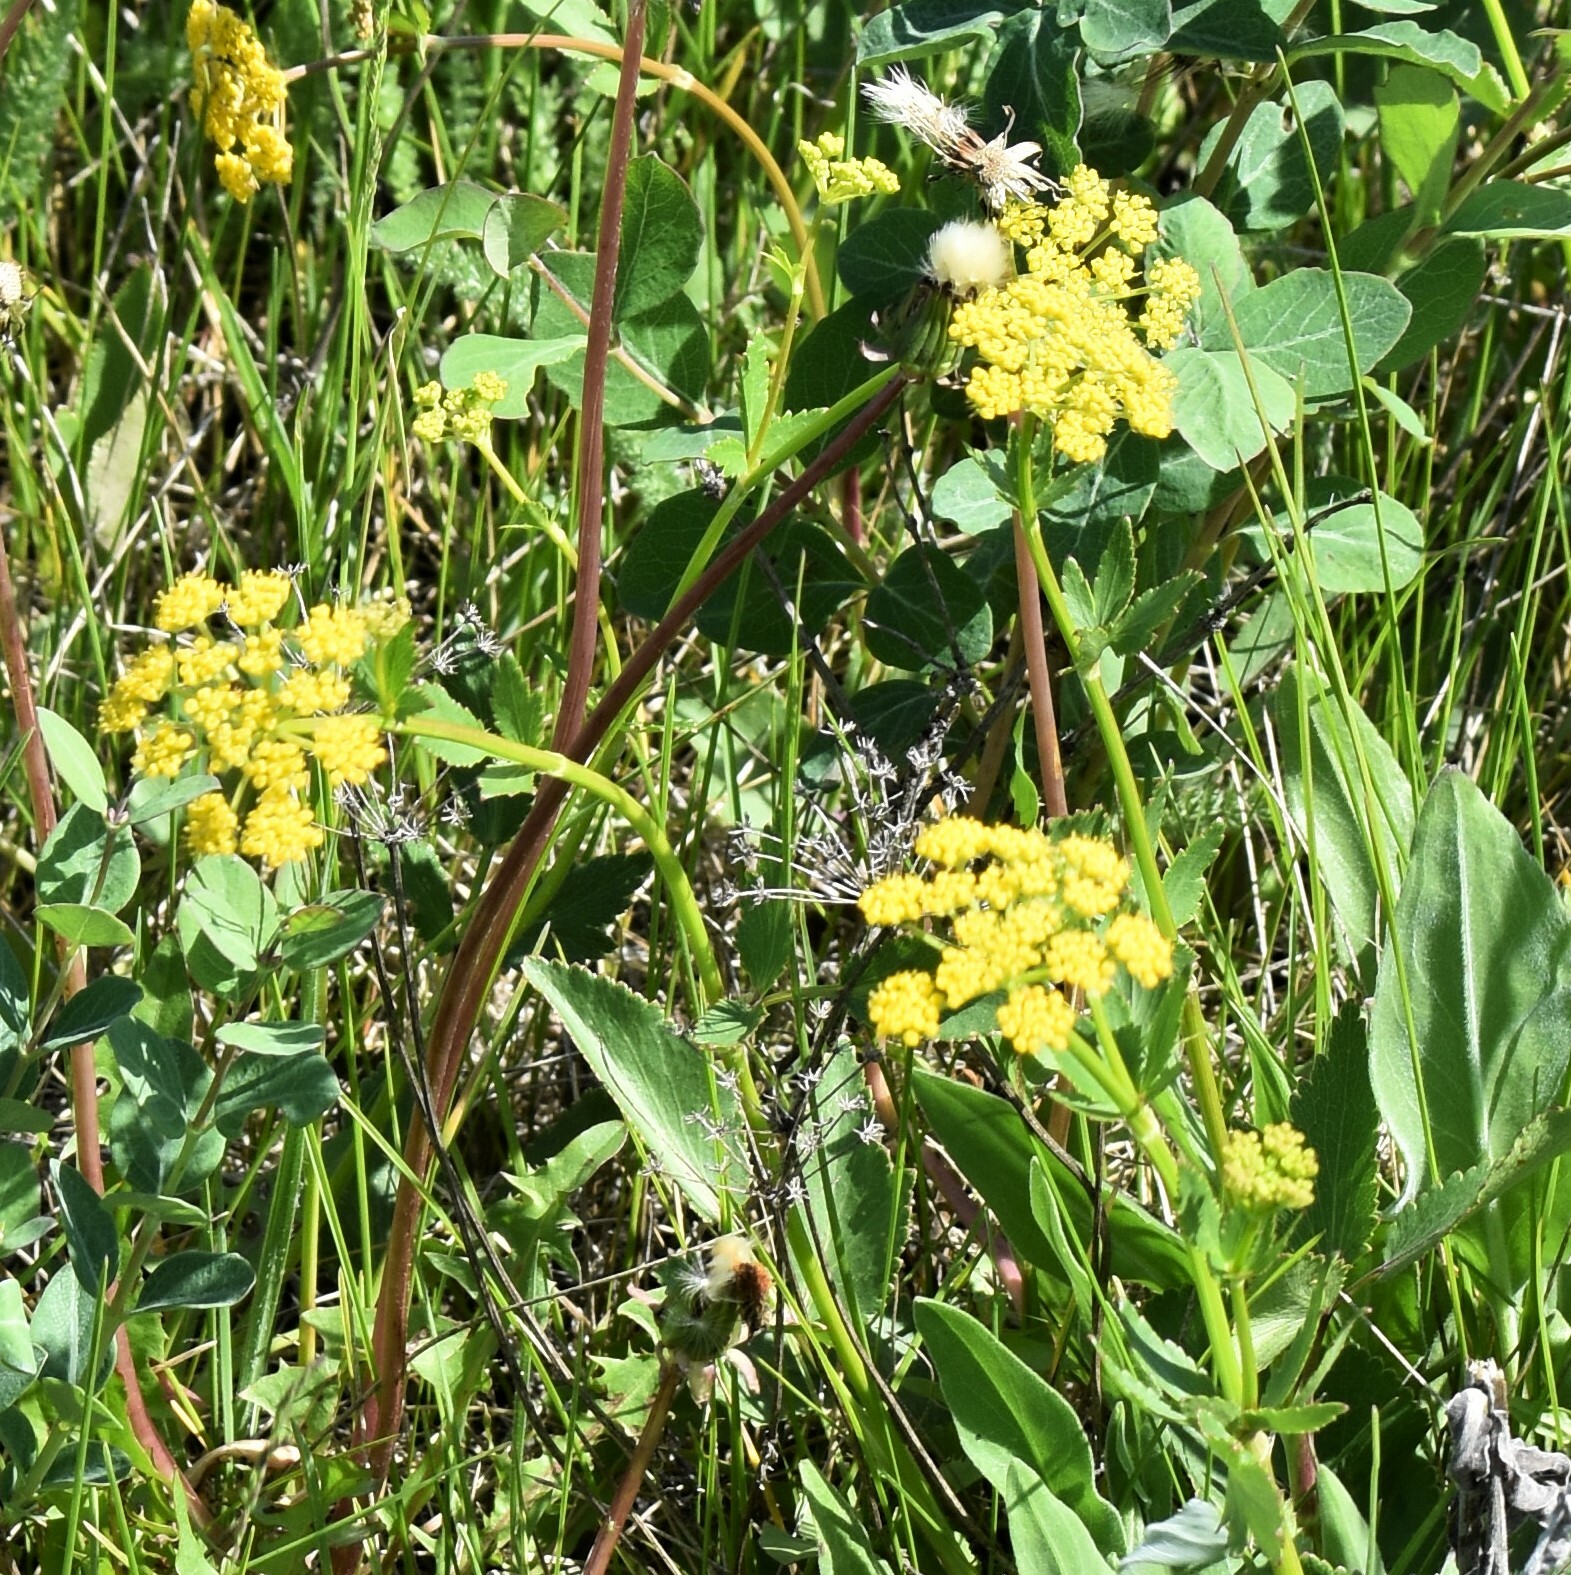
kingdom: Plantae
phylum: Tracheophyta
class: Magnoliopsida
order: Apiales
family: Apiaceae
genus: Zizia
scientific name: Zizia aptera
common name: Heart-leaved alexanders
